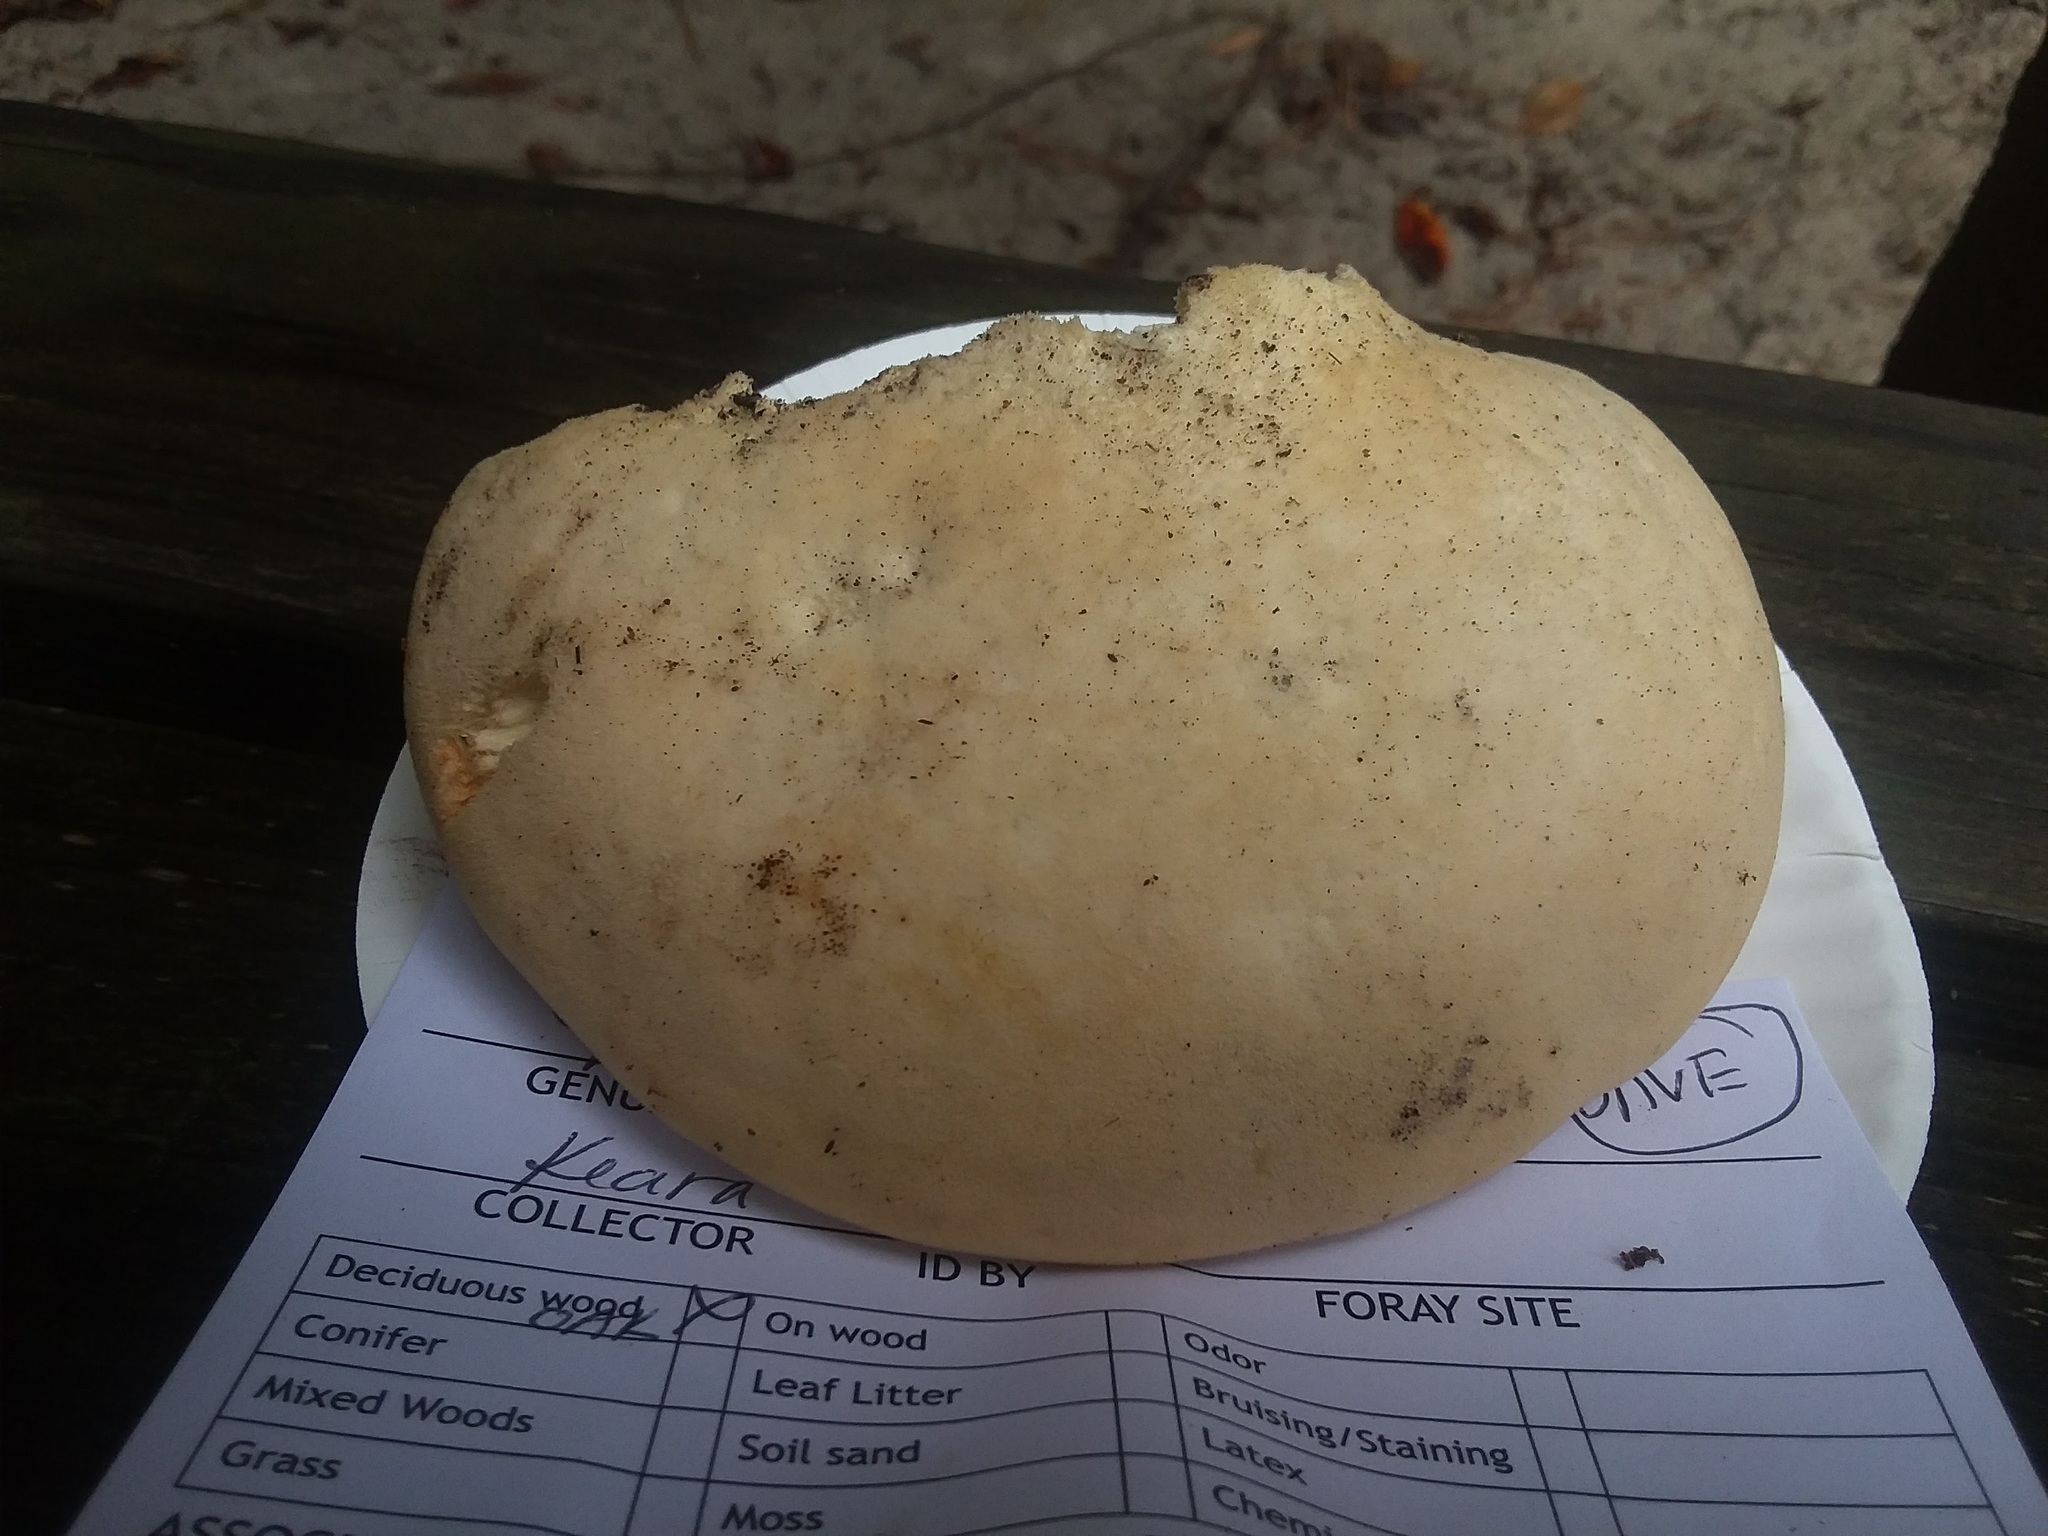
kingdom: Fungi
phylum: Basidiomycota
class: Agaricomycetes
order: Polyporales
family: Meruliaceae
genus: Spongipellis
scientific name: Spongipellis
